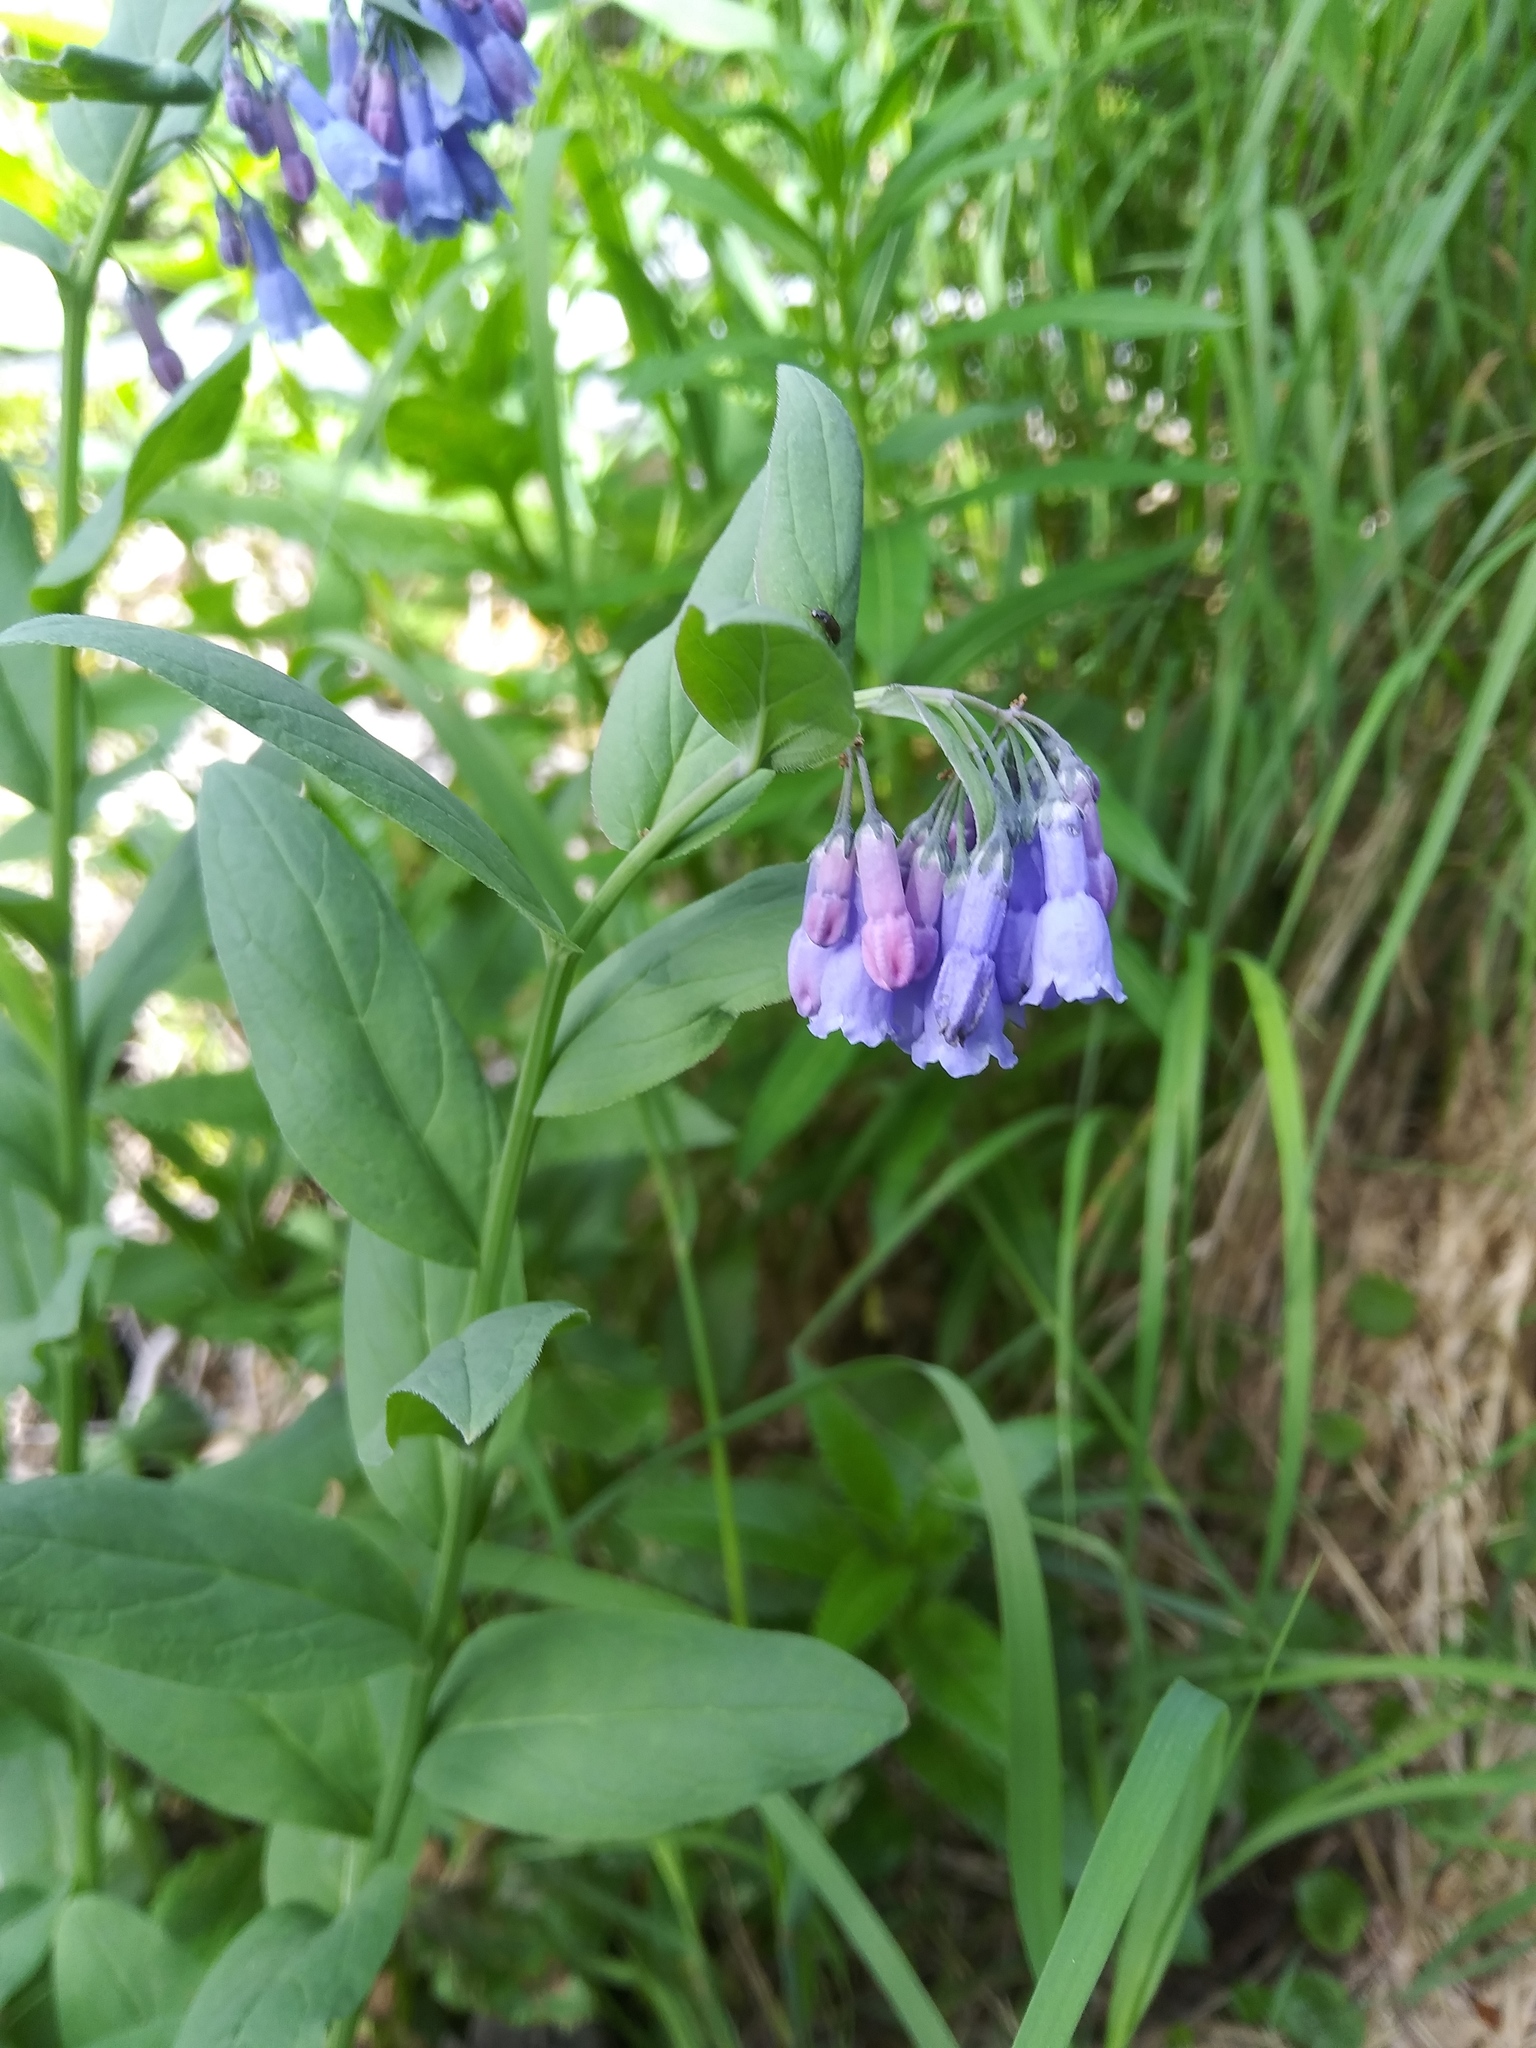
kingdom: Plantae
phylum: Tracheophyta
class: Magnoliopsida
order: Boraginales
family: Boraginaceae
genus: Mertensia
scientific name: Mertensia ciliata
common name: Tall chiming-bells
